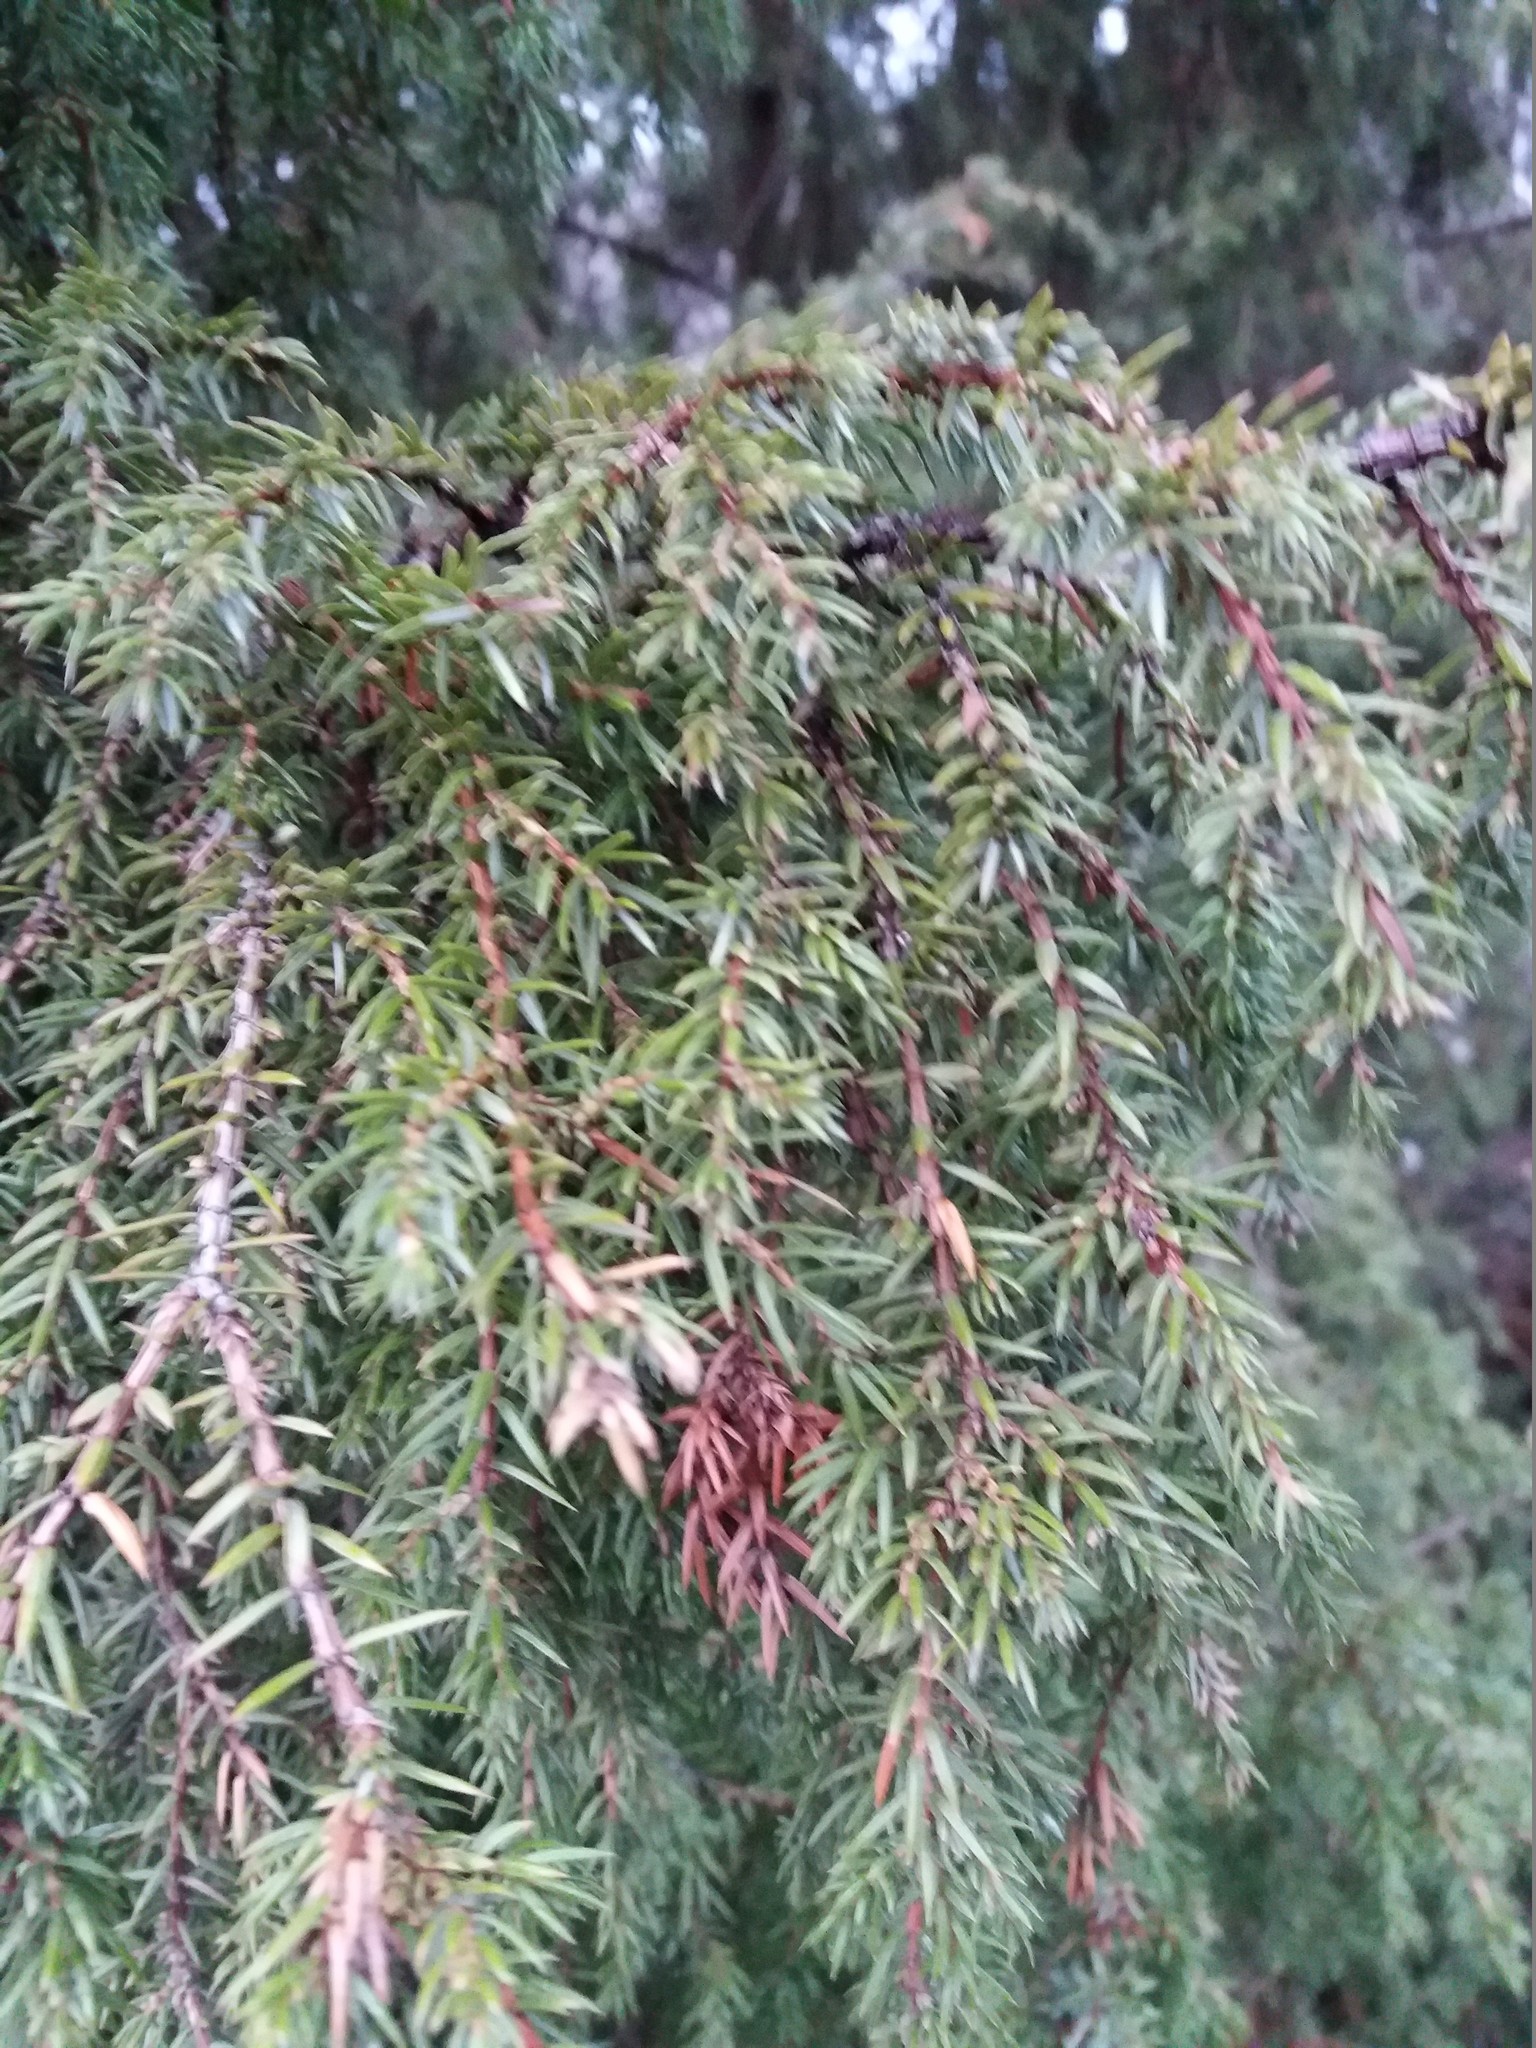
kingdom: Plantae
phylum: Tracheophyta
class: Pinopsida
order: Pinales
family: Cupressaceae
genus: Juniperus
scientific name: Juniperus communis
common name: Common juniper
